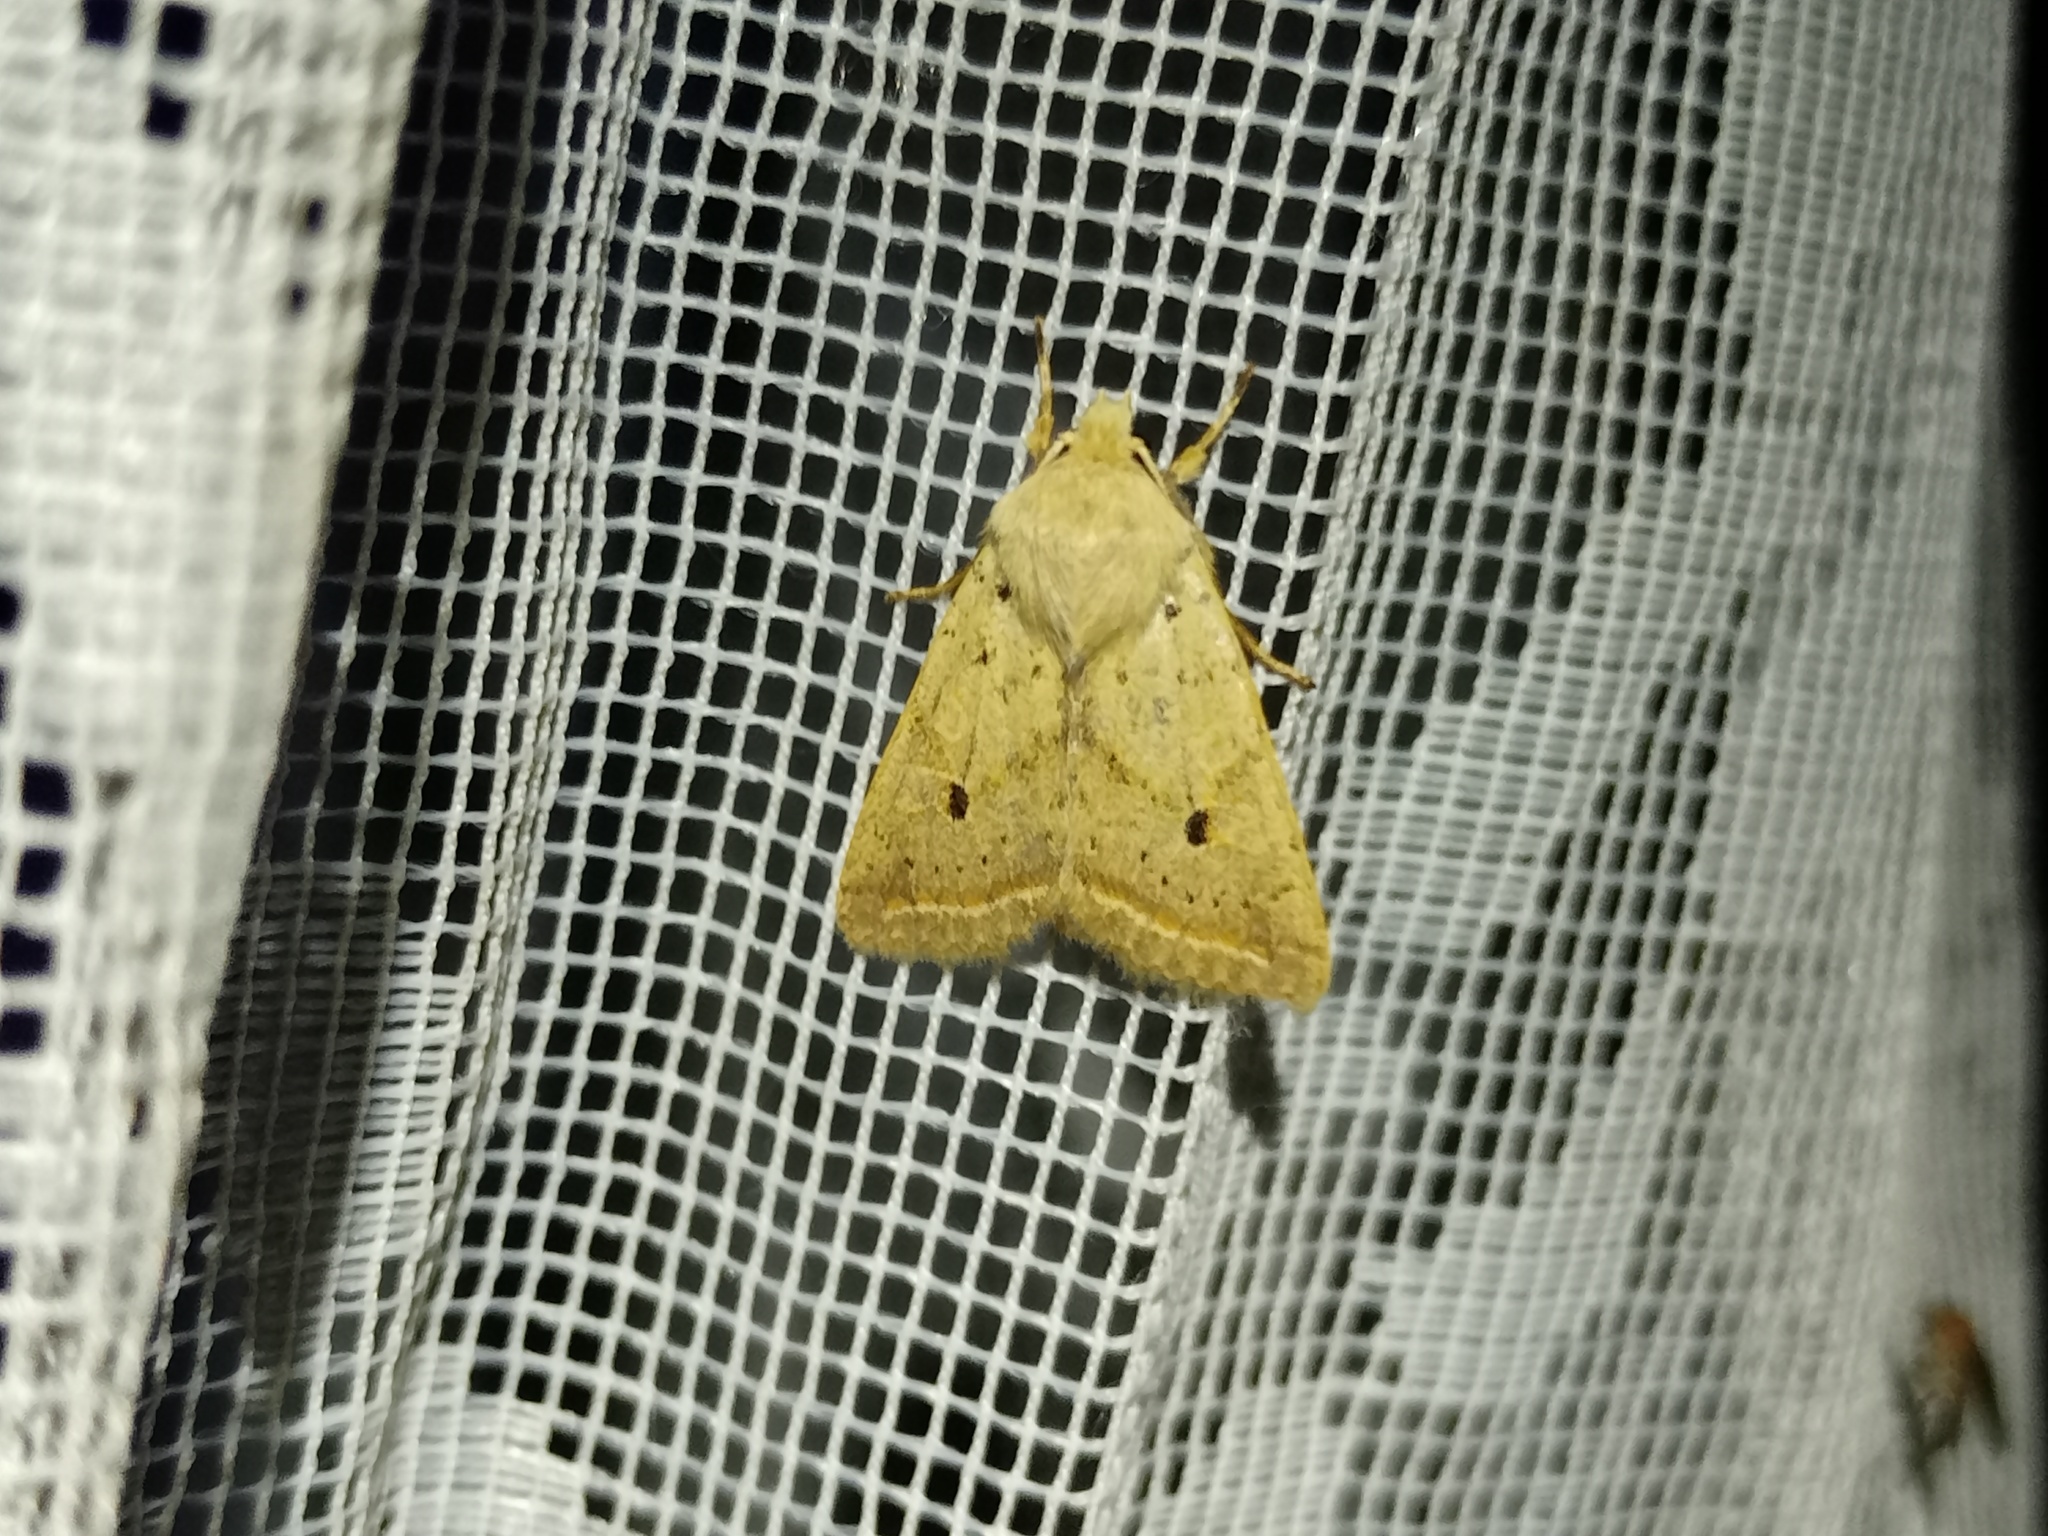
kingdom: Animalia
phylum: Arthropoda
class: Insecta
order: Lepidoptera
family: Noctuidae
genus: Agrochola
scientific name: Agrochola macilenta
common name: Yellow-line quaker
